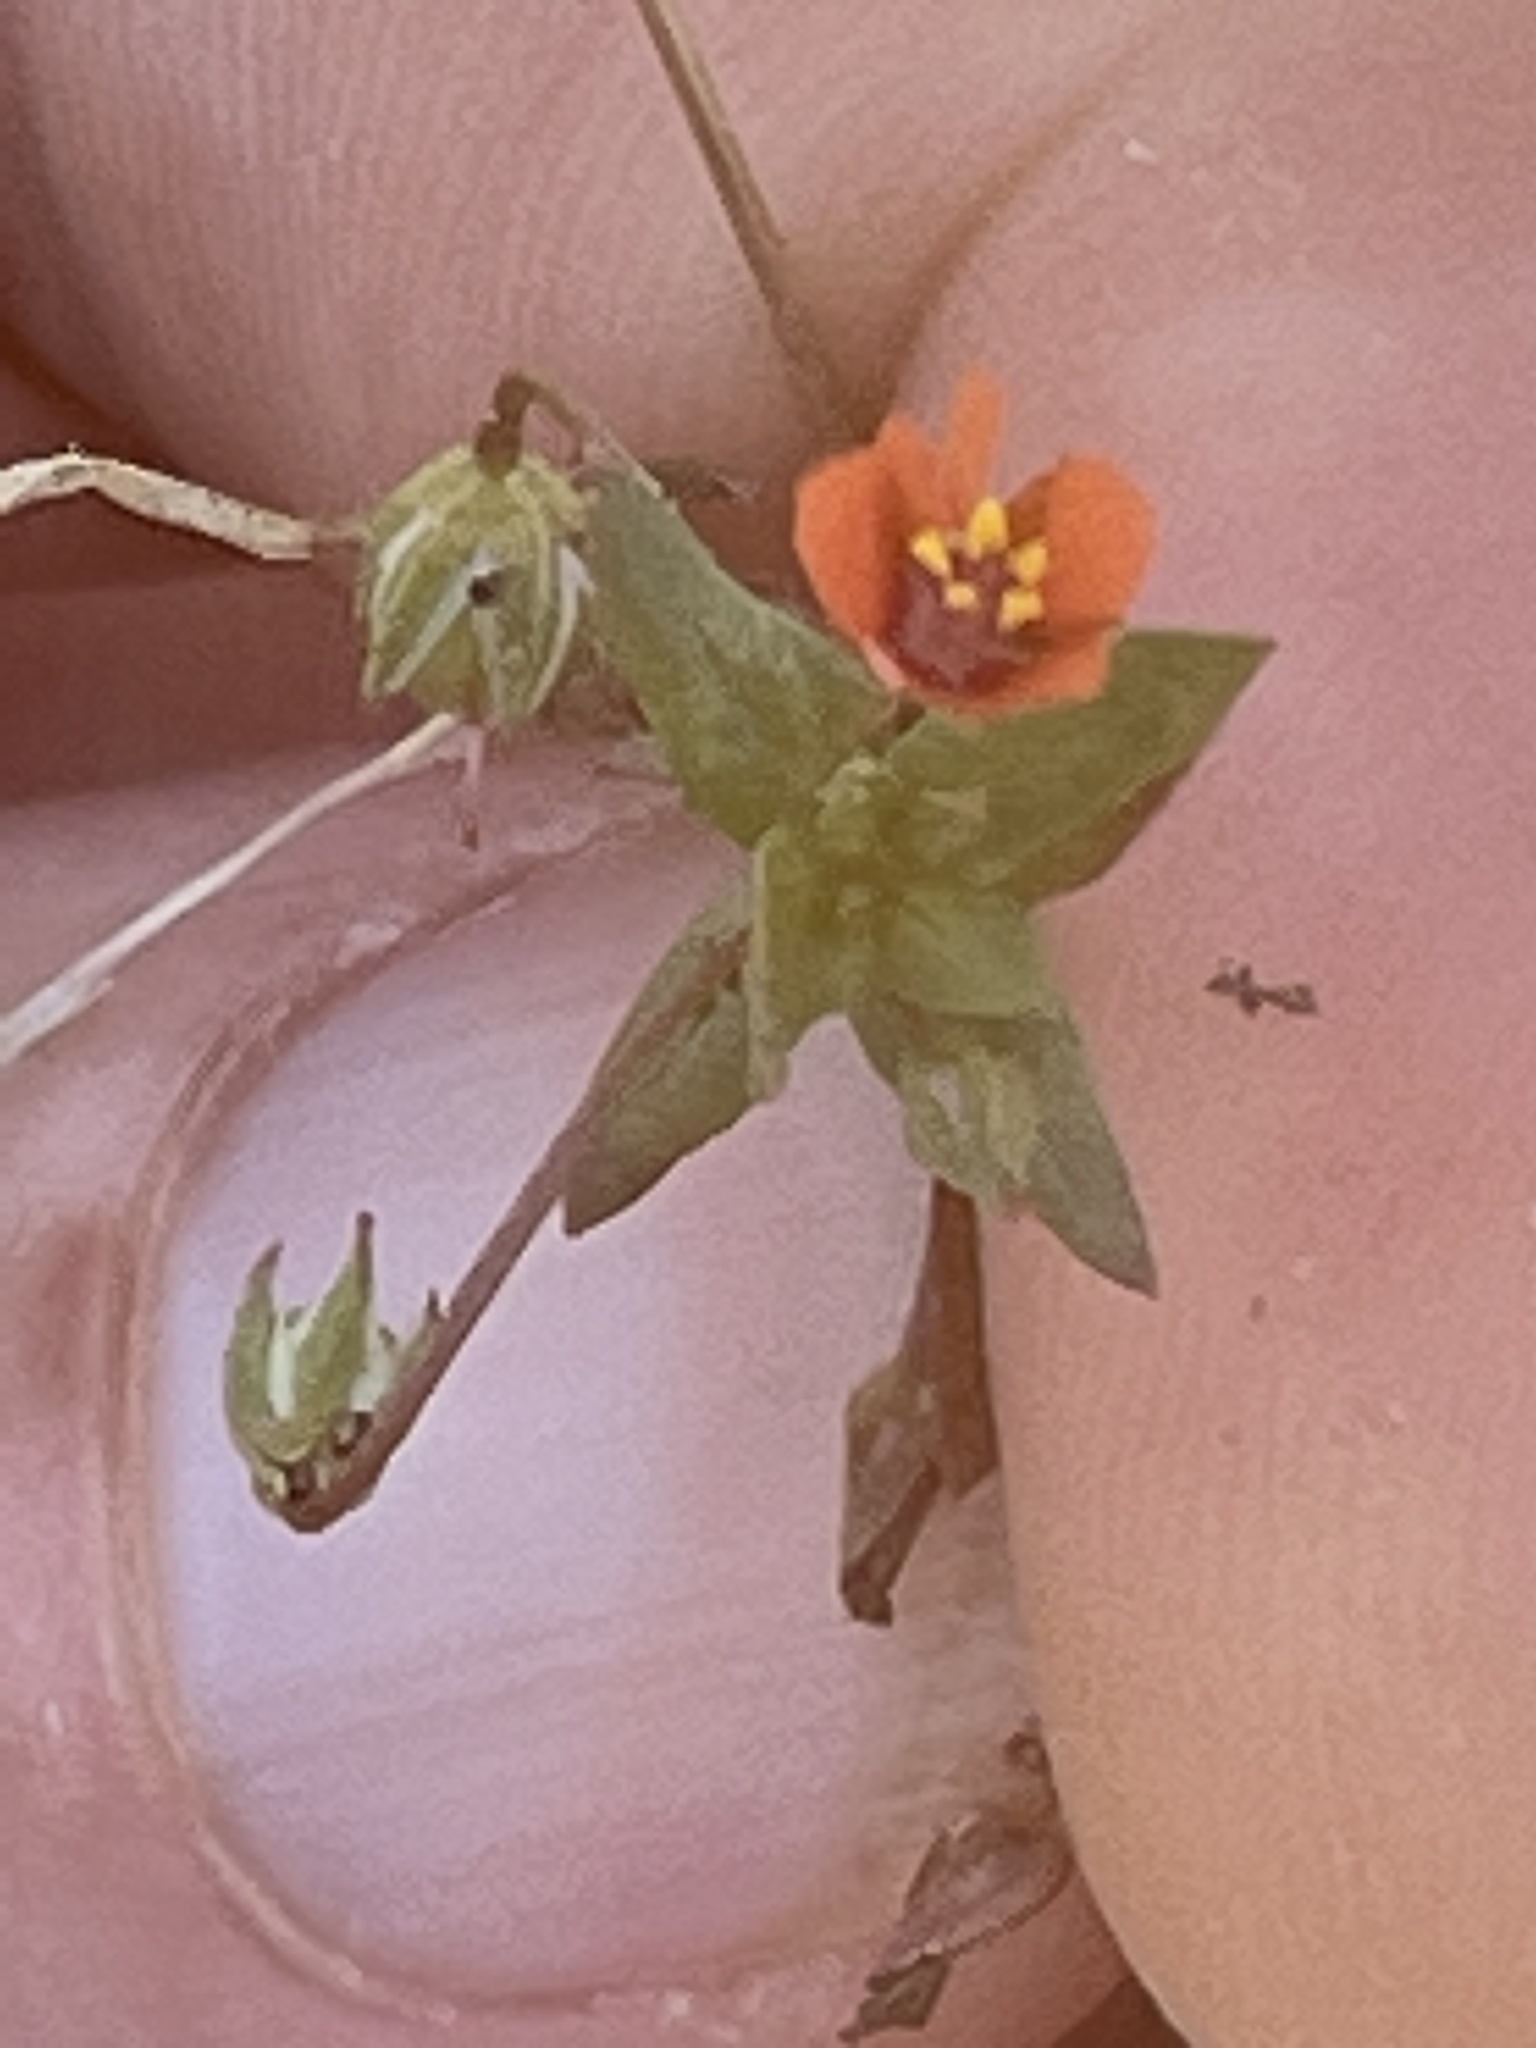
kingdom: Plantae
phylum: Tracheophyta
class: Magnoliopsida
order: Ericales
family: Primulaceae
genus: Lysimachia
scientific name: Lysimachia arvensis
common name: Scarlet pimpernel
